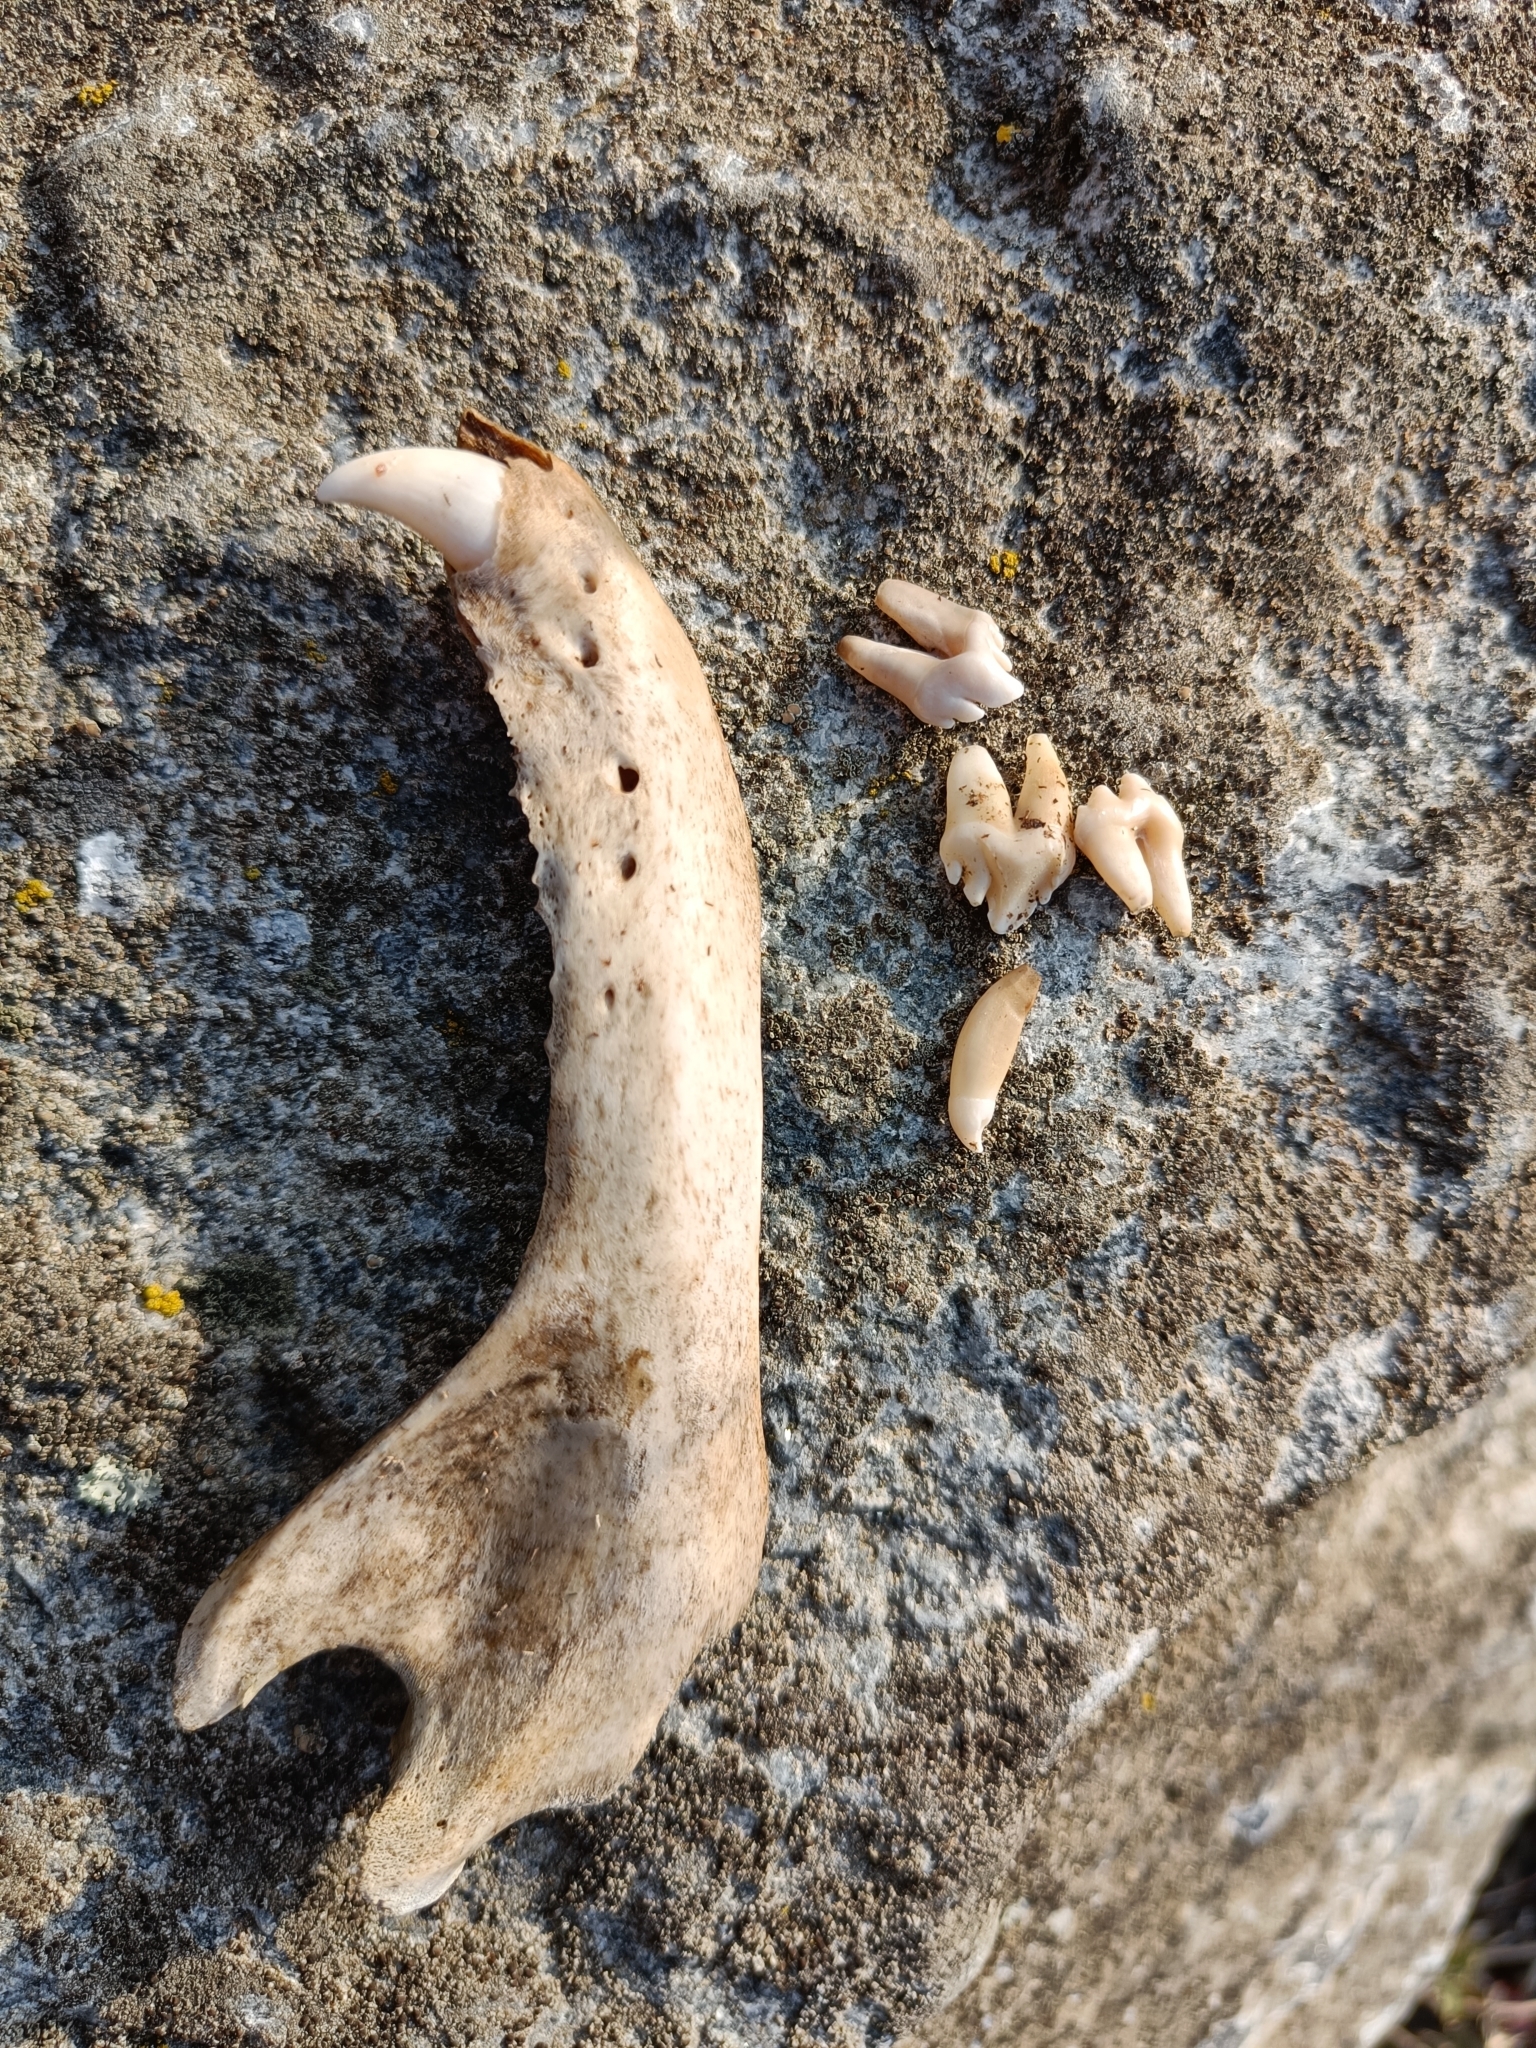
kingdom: Animalia
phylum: Chordata
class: Mammalia
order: Carnivora
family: Phocidae
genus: Phoca
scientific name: Phoca vitulina
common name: Harbor seal
